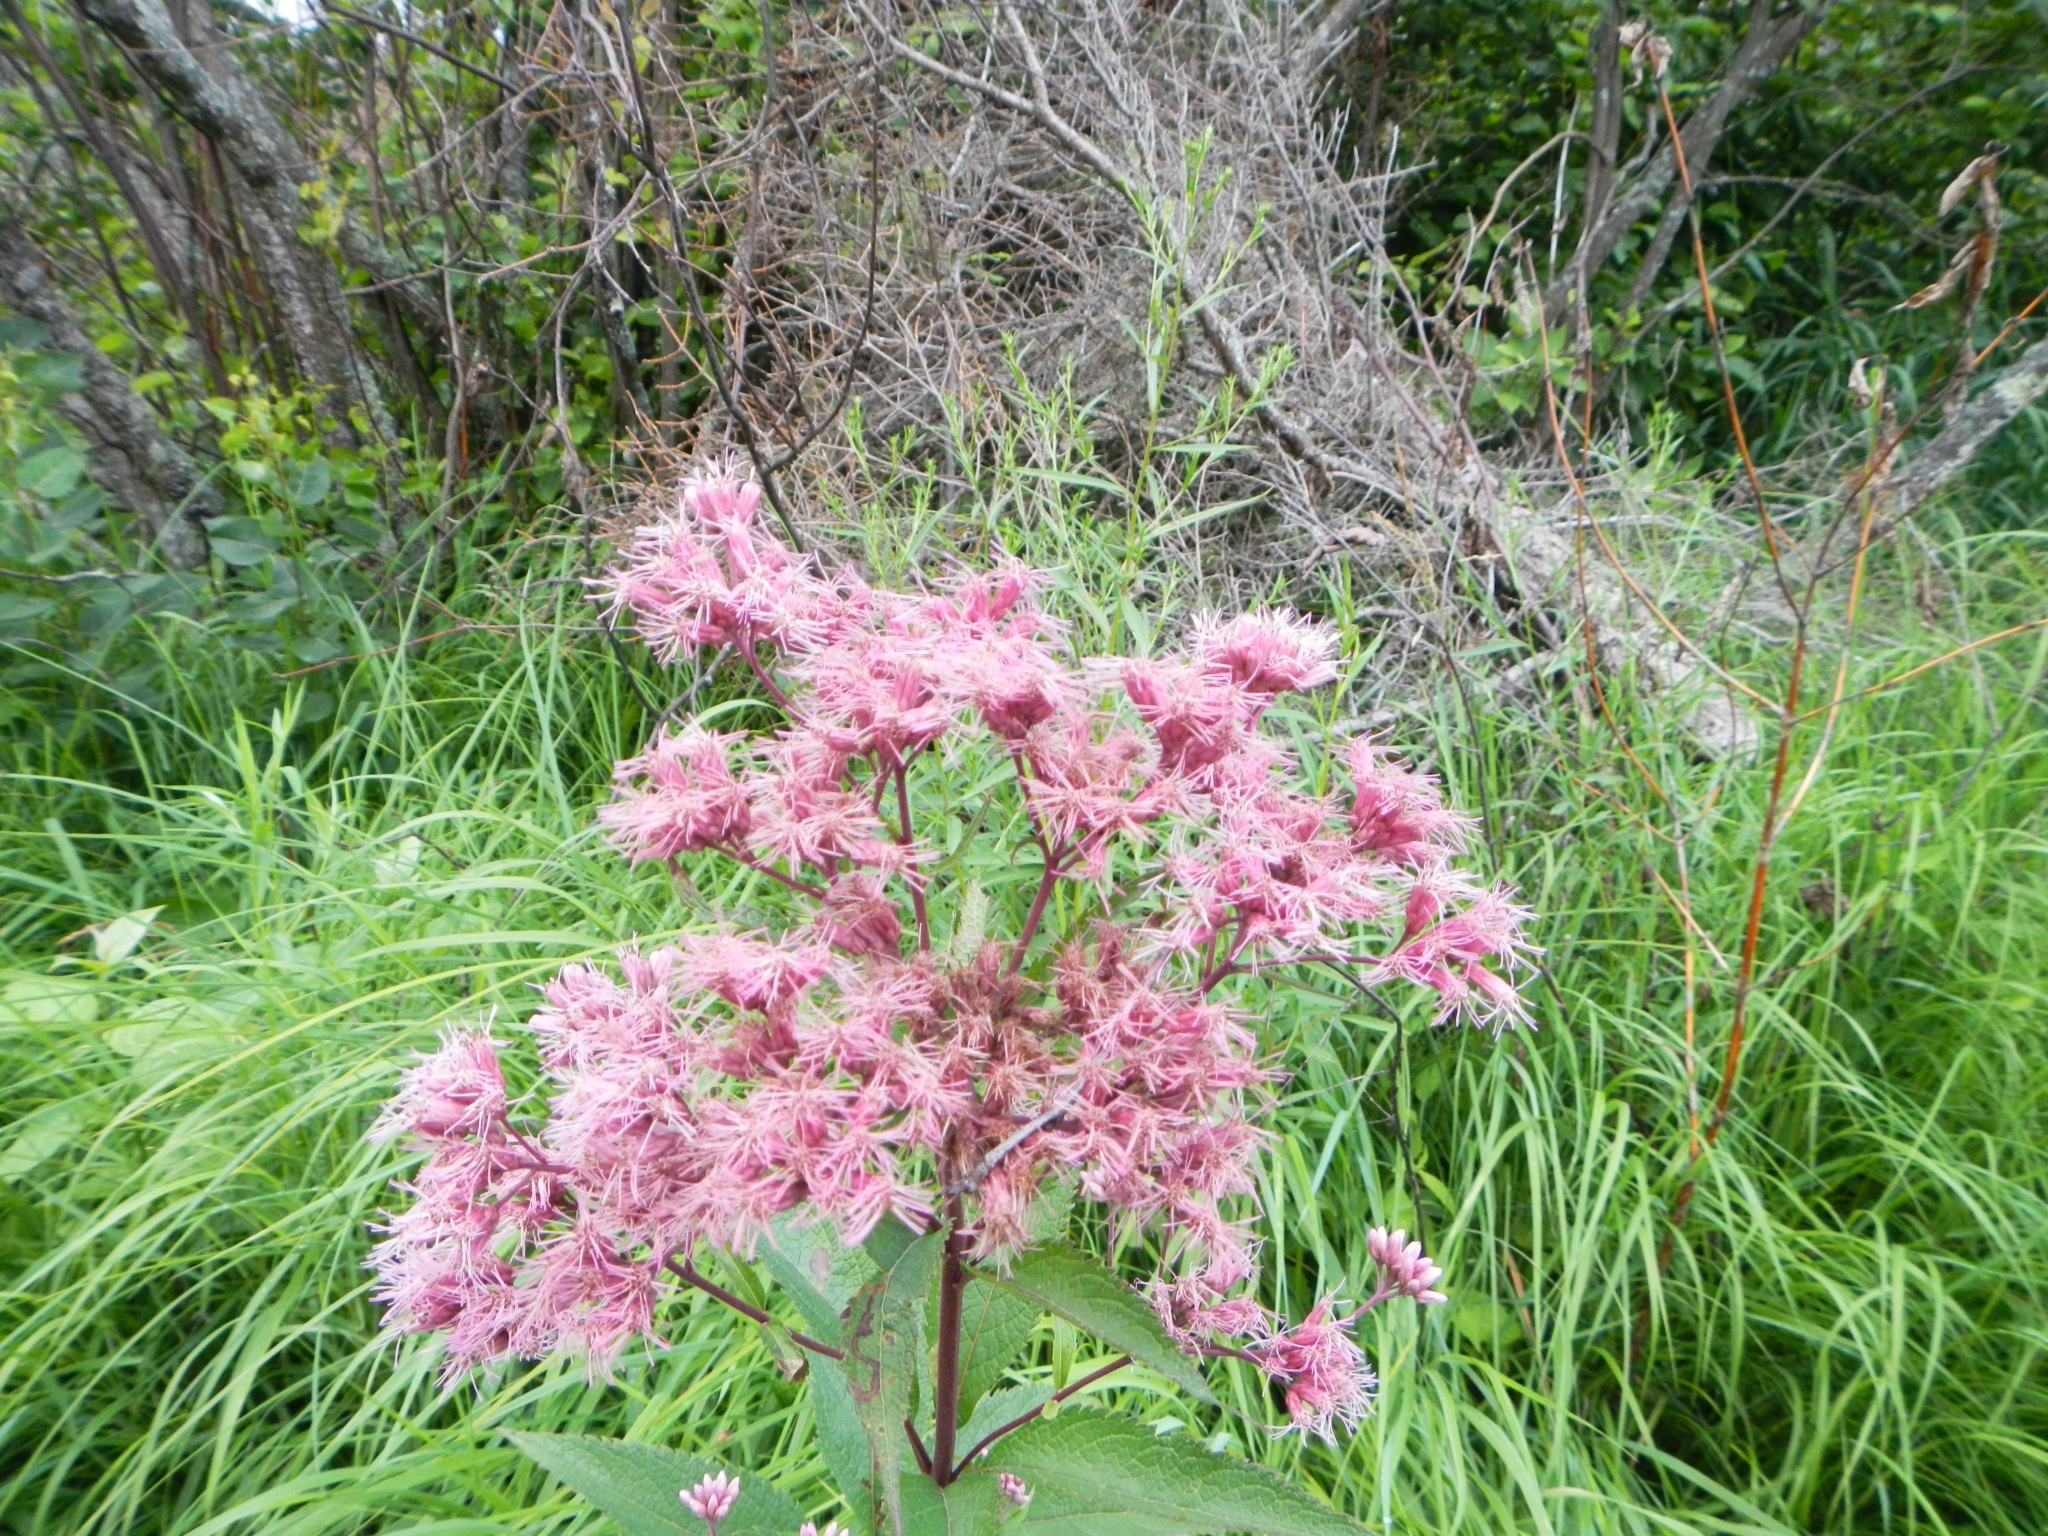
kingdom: Plantae
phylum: Tracheophyta
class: Magnoliopsida
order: Asterales
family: Asteraceae
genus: Eutrochium
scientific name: Eutrochium maculatum
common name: Spotted joe pye weed
